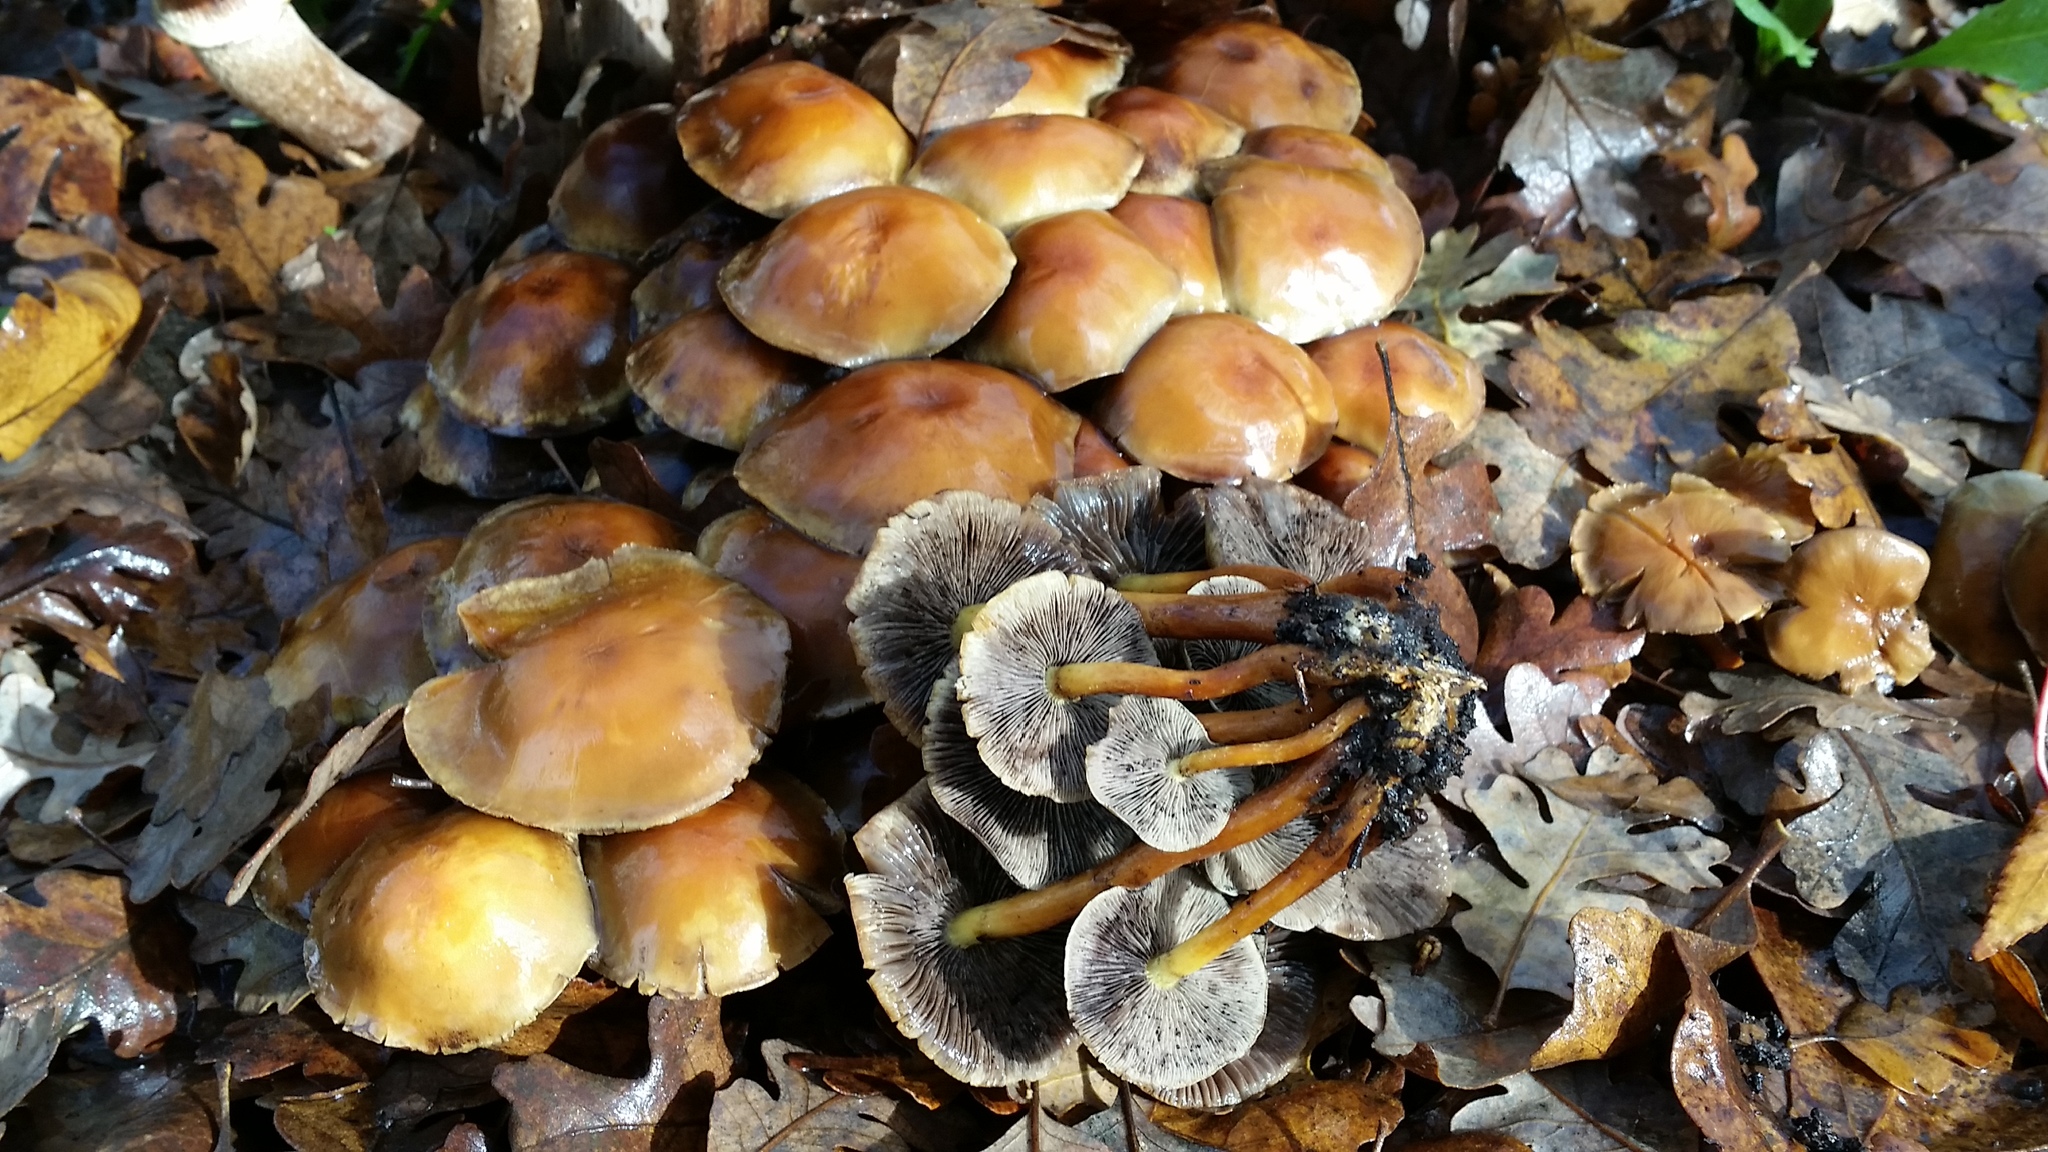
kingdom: Fungi
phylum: Basidiomycota
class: Agaricomycetes
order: Agaricales
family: Strophariaceae
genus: Hypholoma
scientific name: Hypholoma fasciculare
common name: Sulphur tuft
